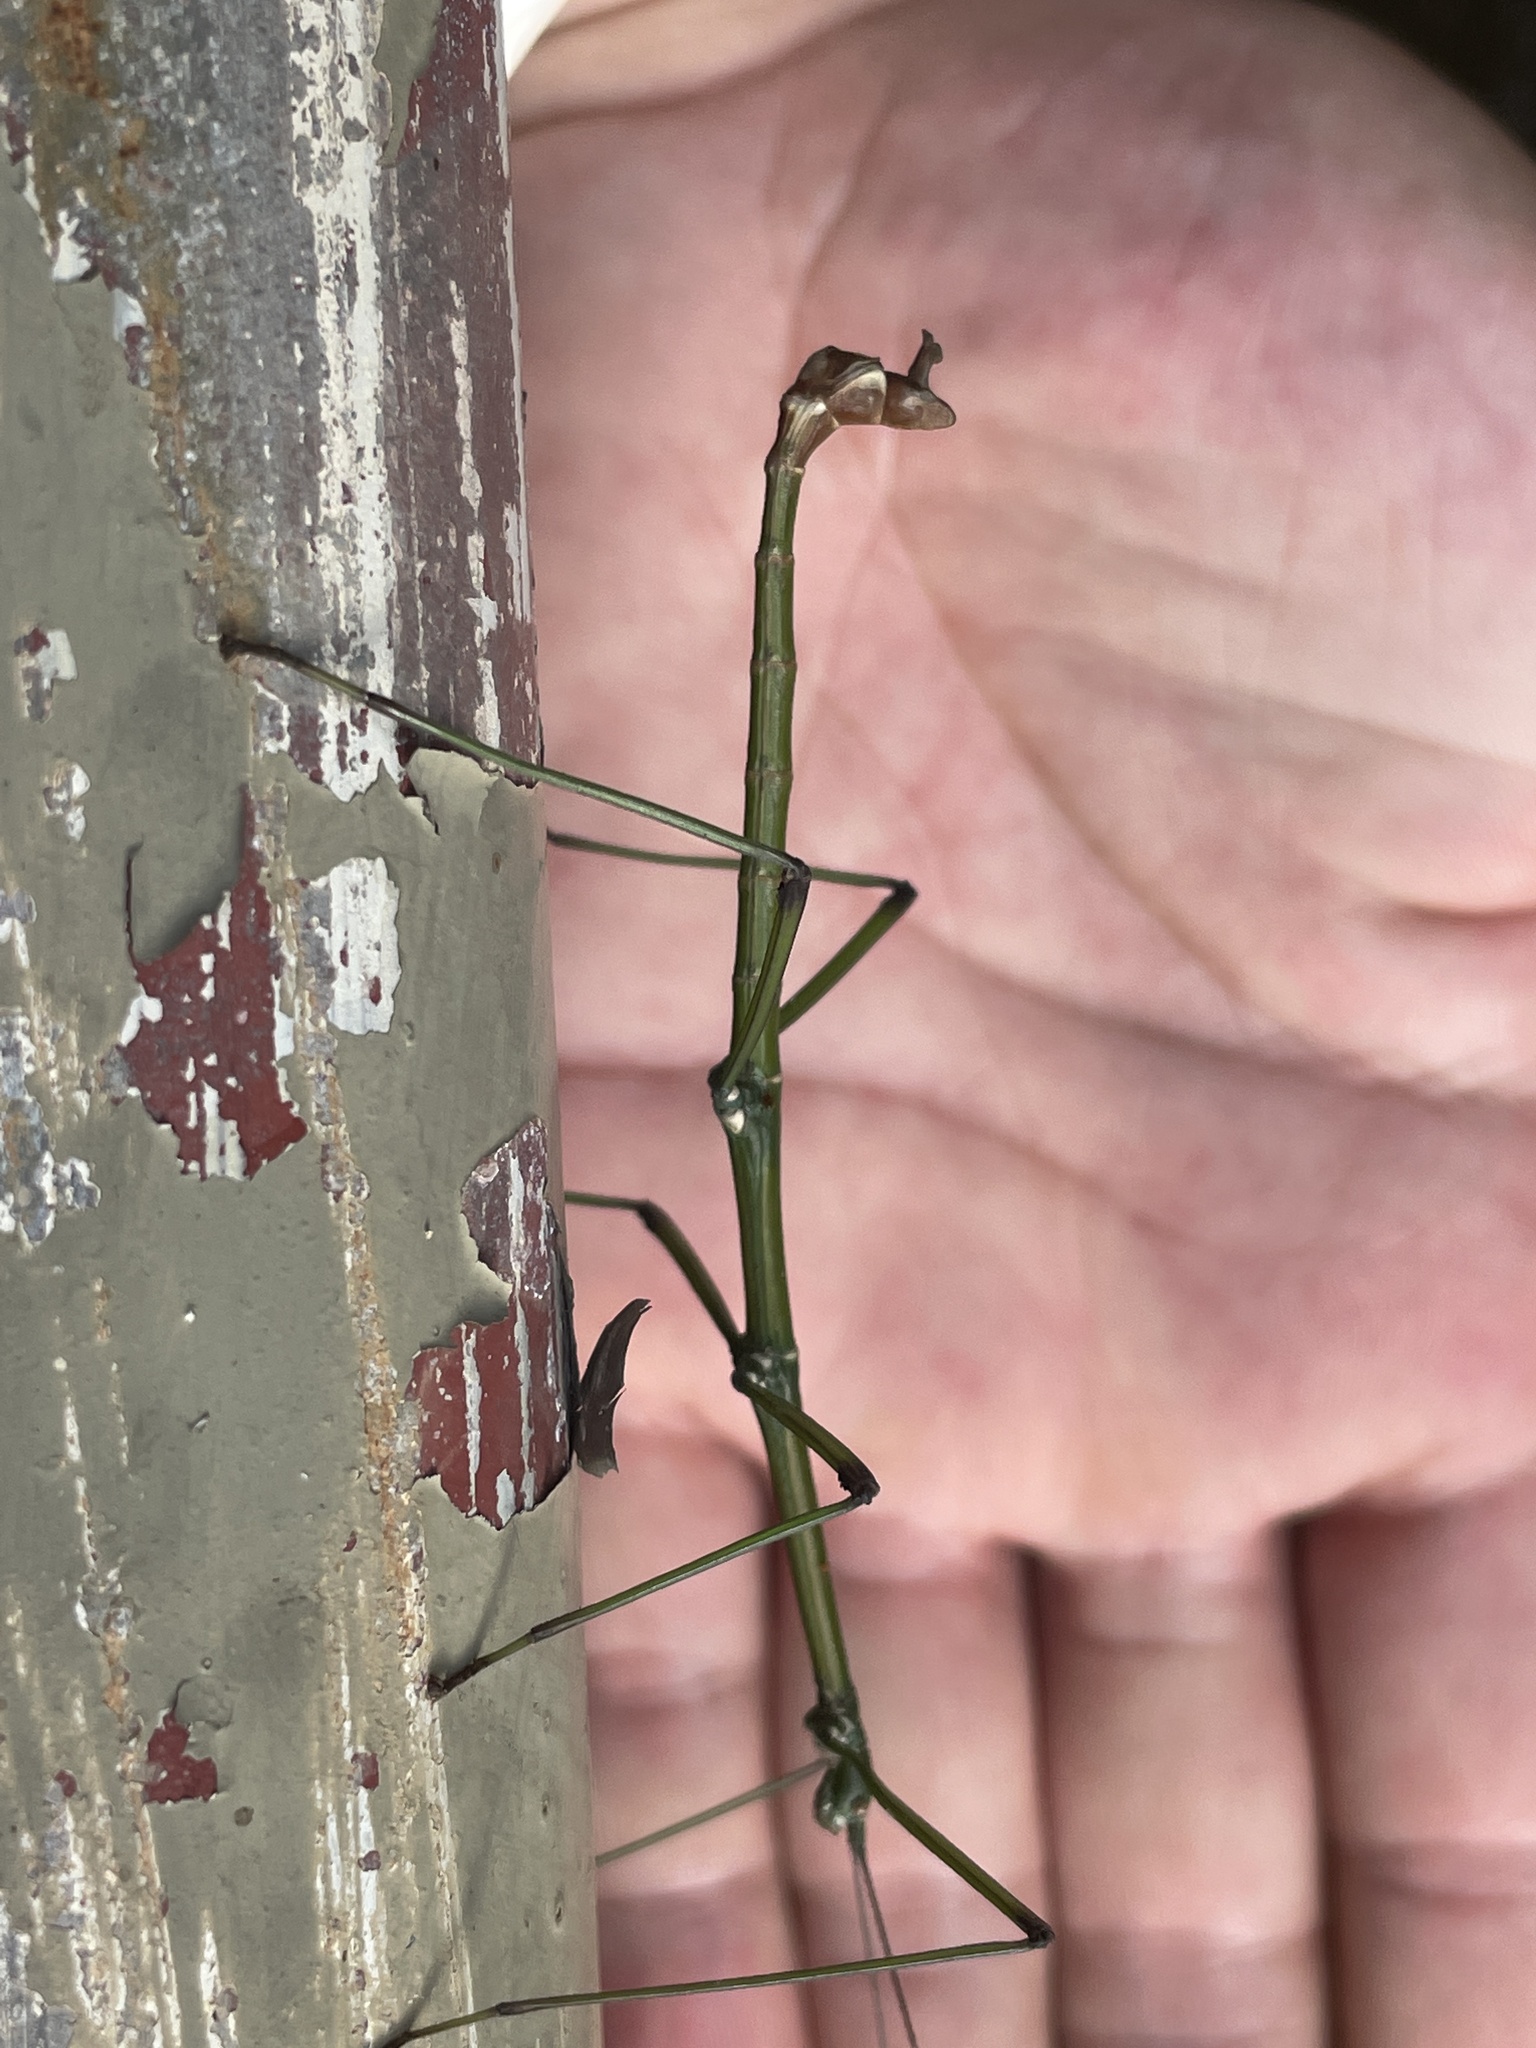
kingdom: Animalia
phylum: Arthropoda
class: Insecta
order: Phasmida
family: Lonchodidae
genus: Phraortes
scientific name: Phraortes stomphax
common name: Hong kong stick insect
